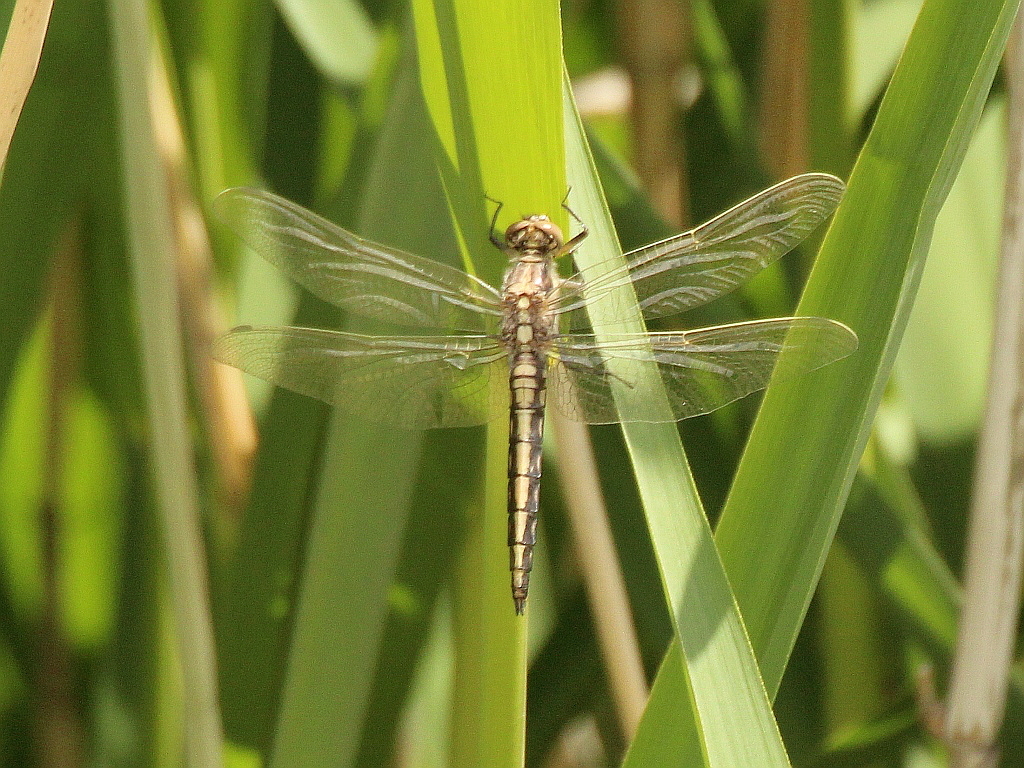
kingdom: Animalia
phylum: Arthropoda
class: Insecta
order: Odonata
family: Libellulidae
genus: Orthetrum
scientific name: Orthetrum cancellatum
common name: Black-tailed skimmer
